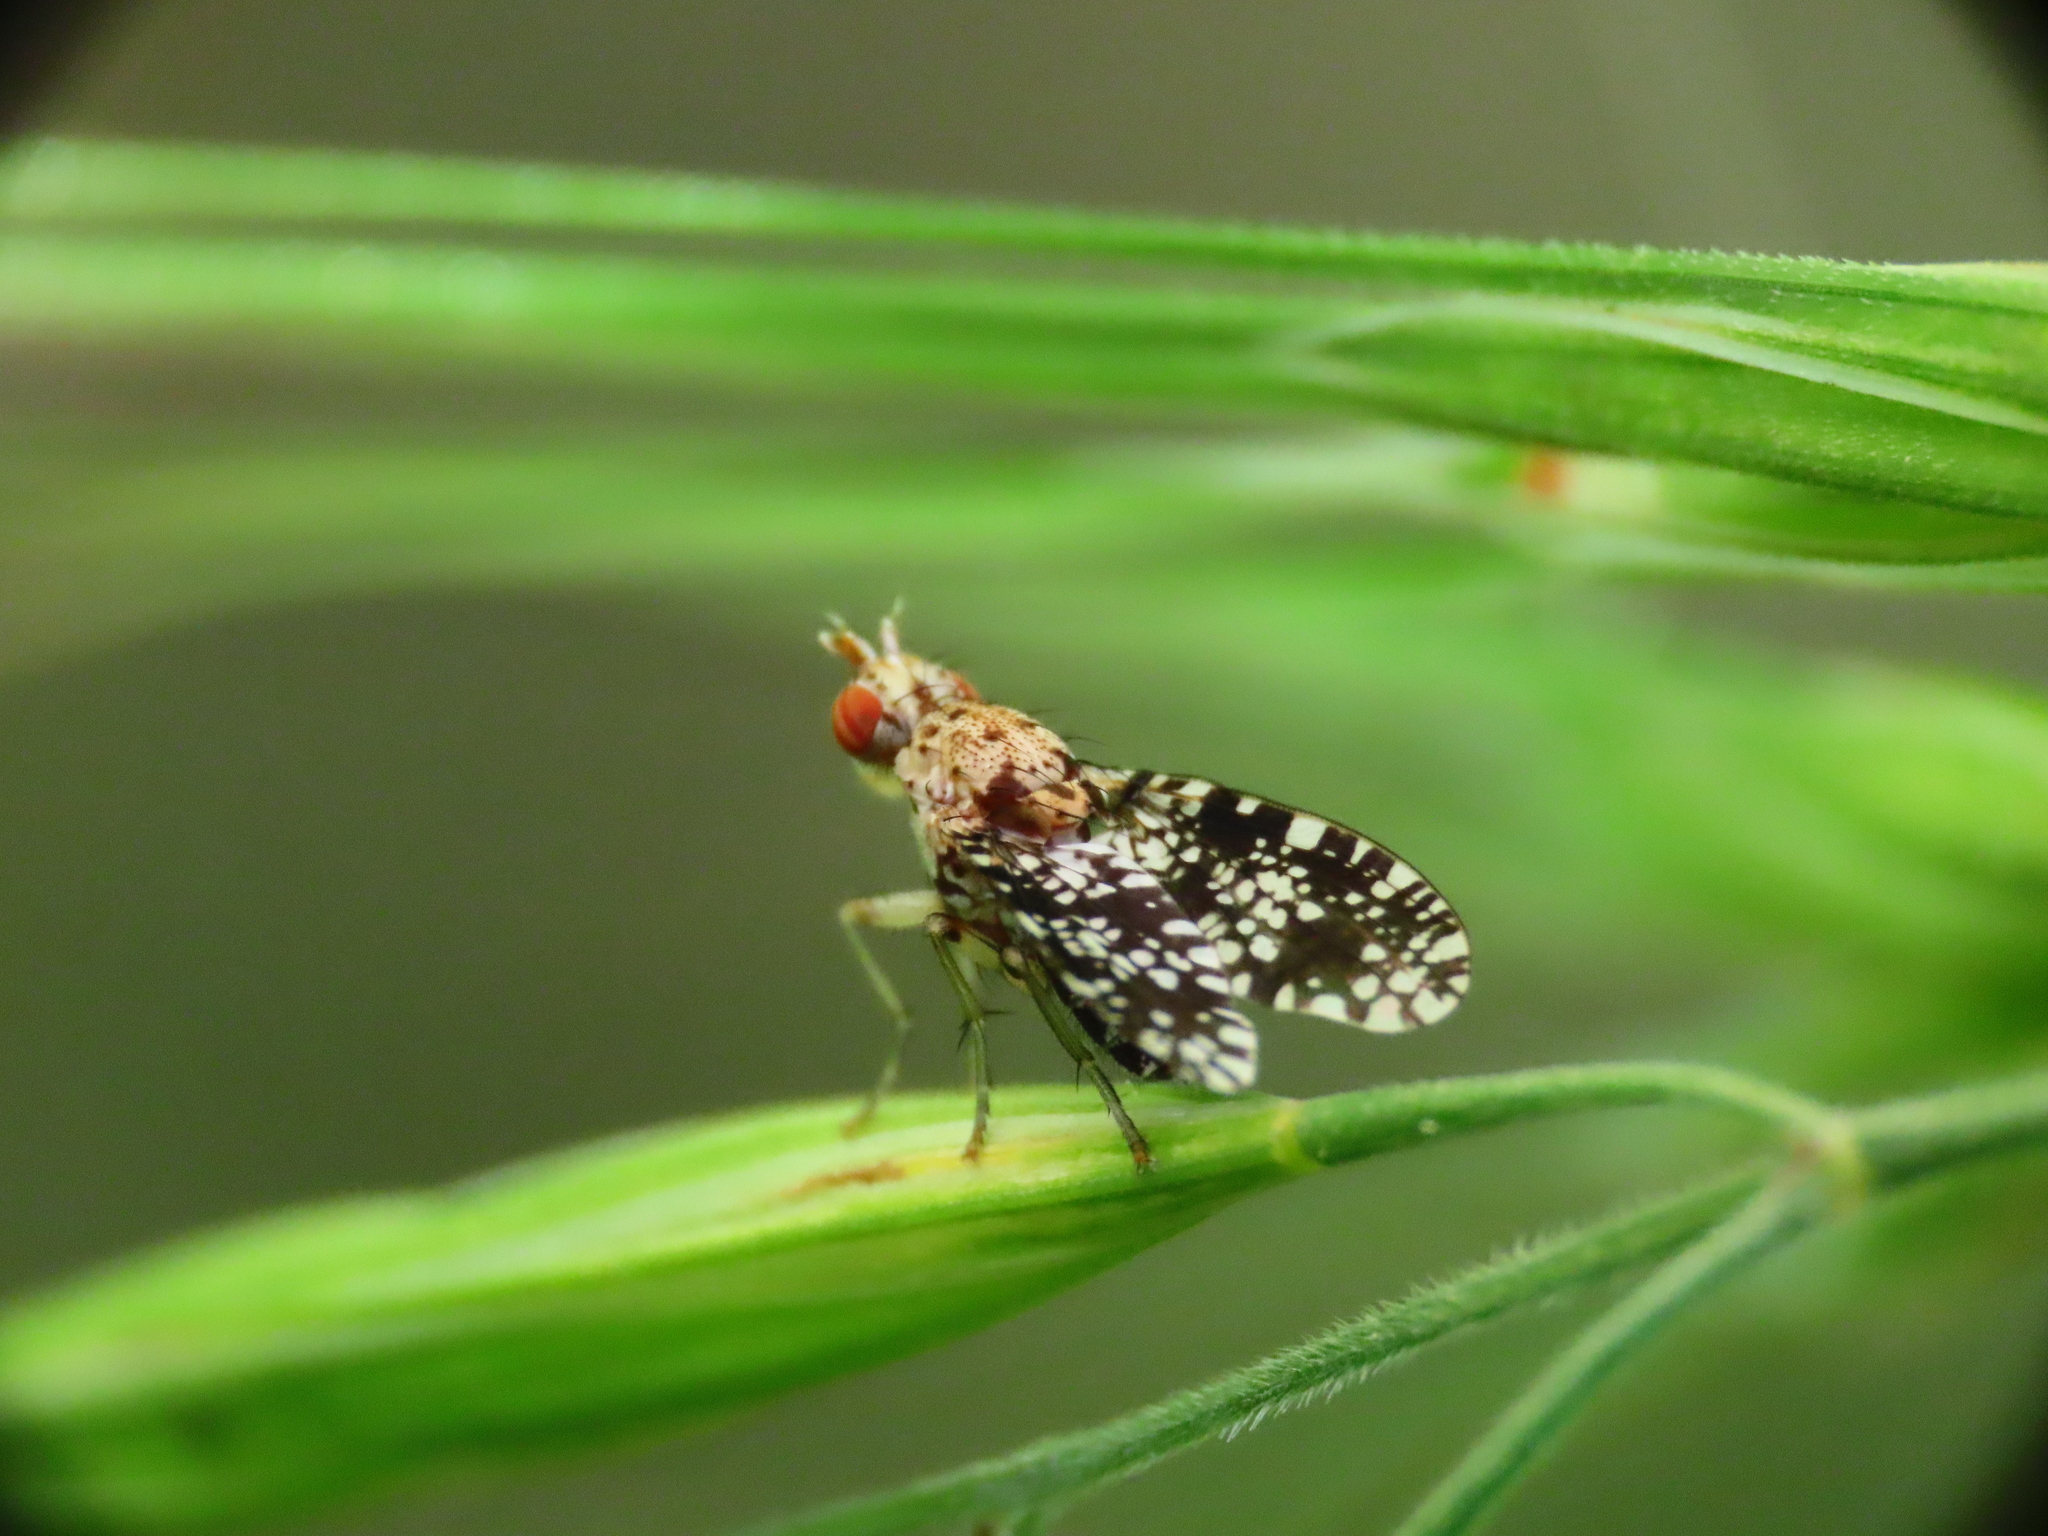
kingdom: Animalia
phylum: Arthropoda
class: Insecta
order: Diptera
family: Sciomyzidae
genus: Trypetoptera
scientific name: Trypetoptera punctulata
